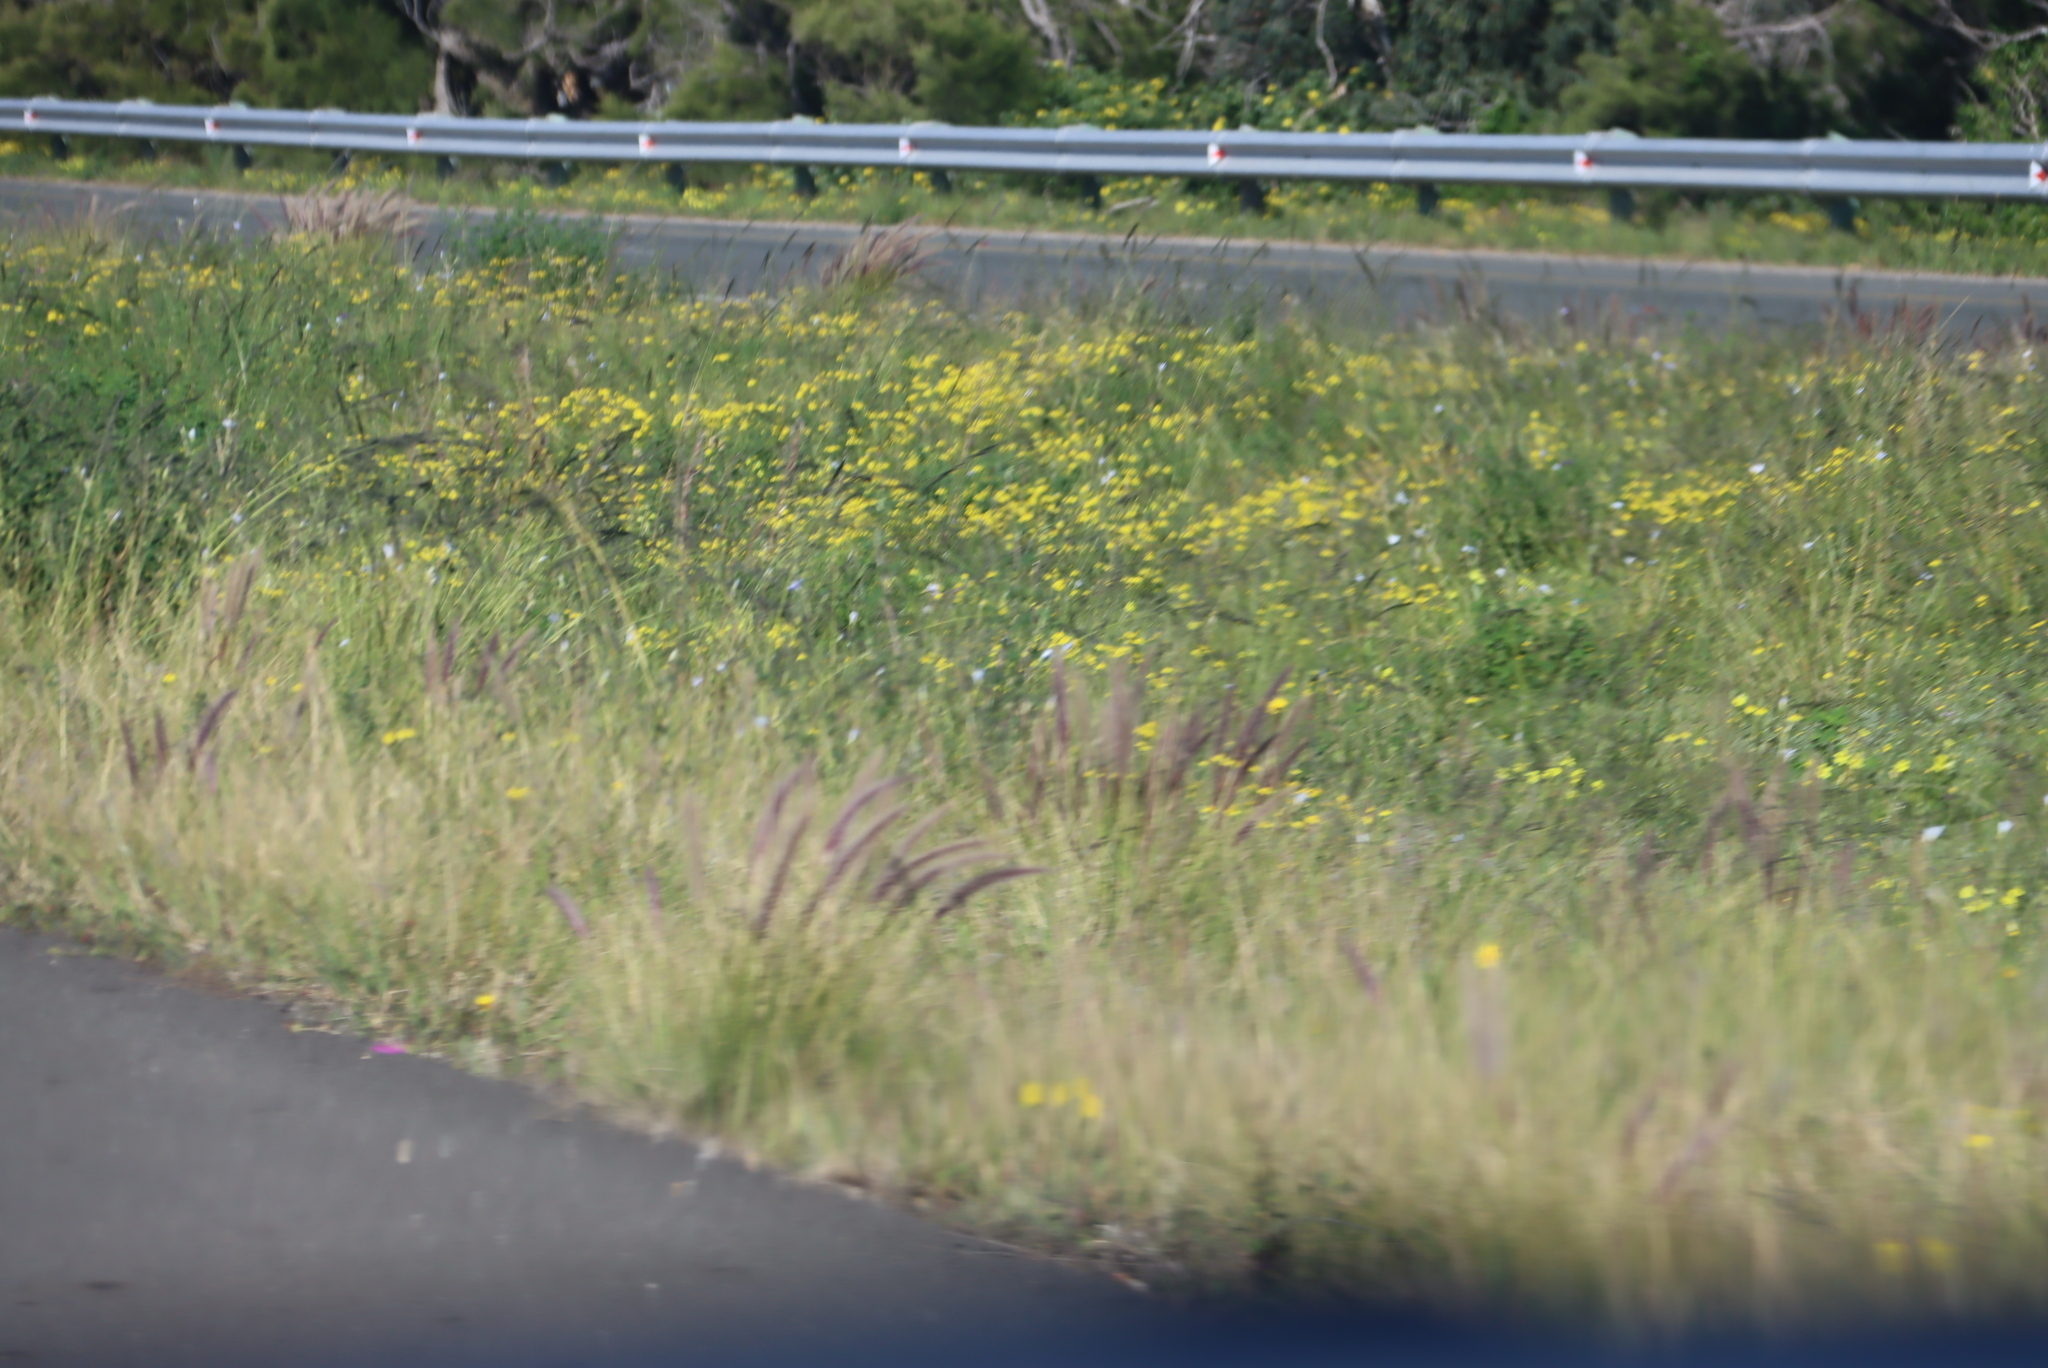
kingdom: Plantae
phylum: Tracheophyta
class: Liliopsida
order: Poales
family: Poaceae
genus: Cenchrus
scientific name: Cenchrus setaceus
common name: Crimson fountaingrass
